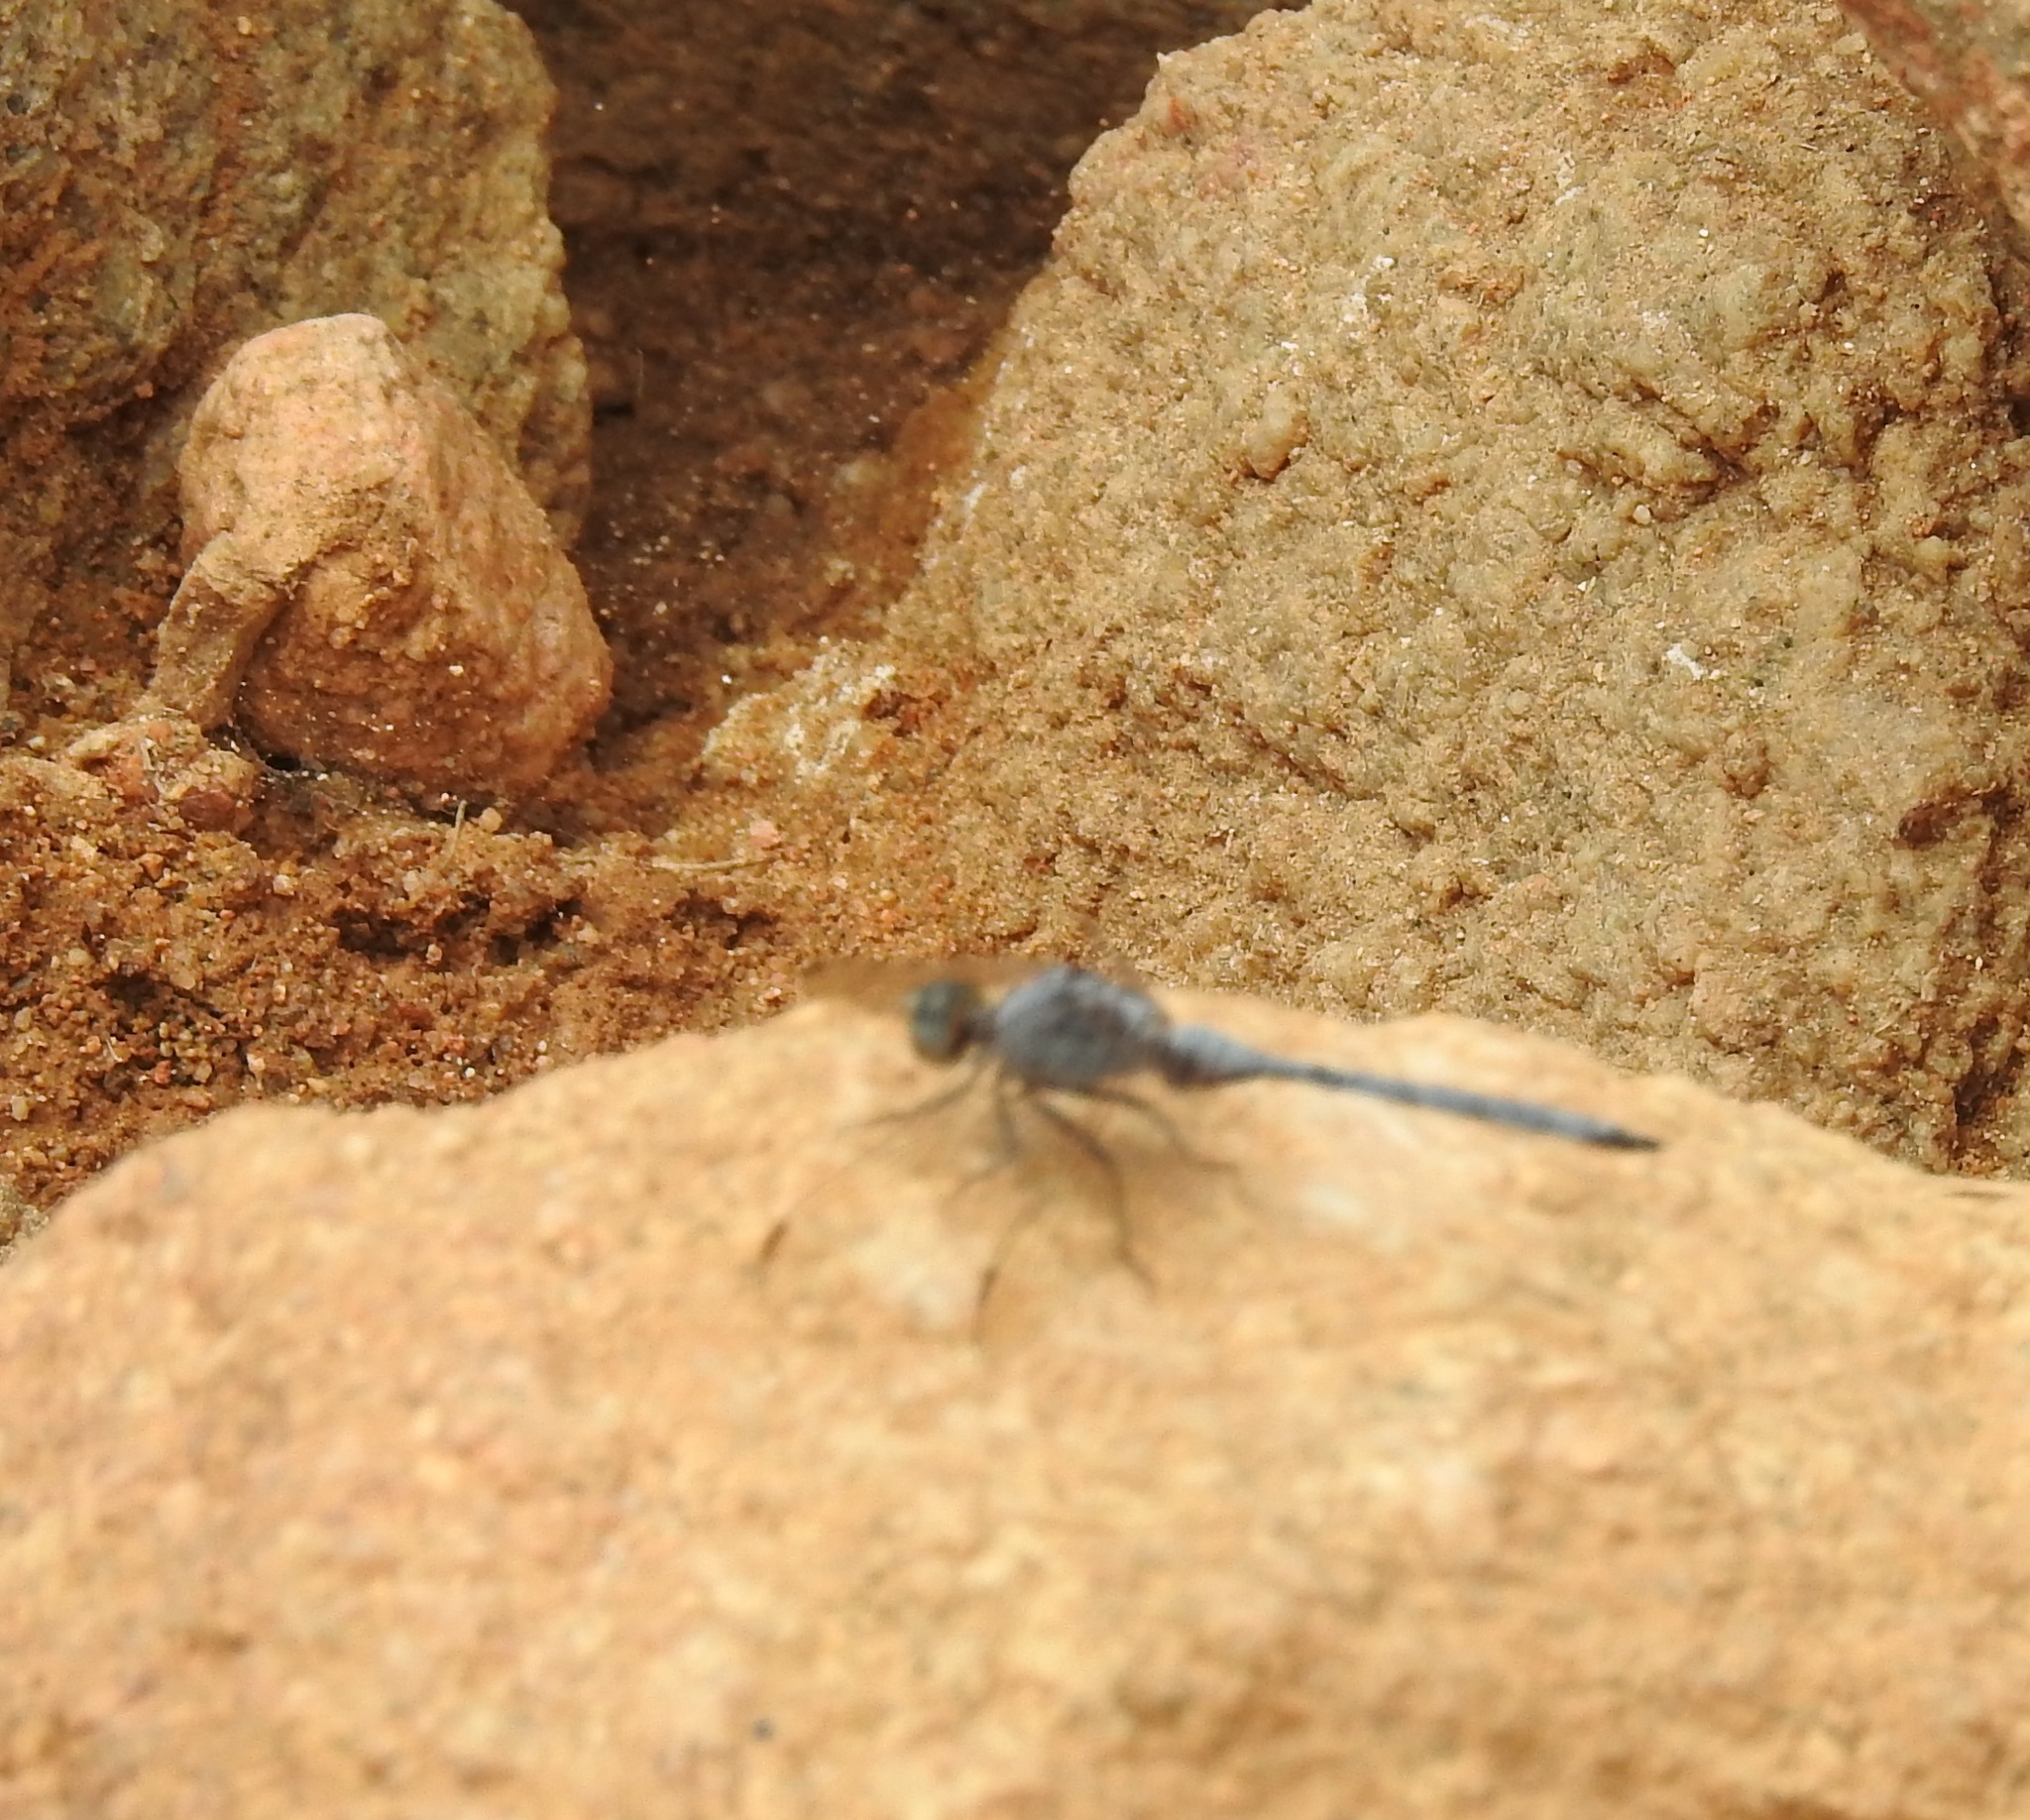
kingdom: Animalia
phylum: Arthropoda
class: Insecta
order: Odonata
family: Libellulidae
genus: Orthetrum
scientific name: Orthetrum chrysostigma
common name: Epaulet skimmer
